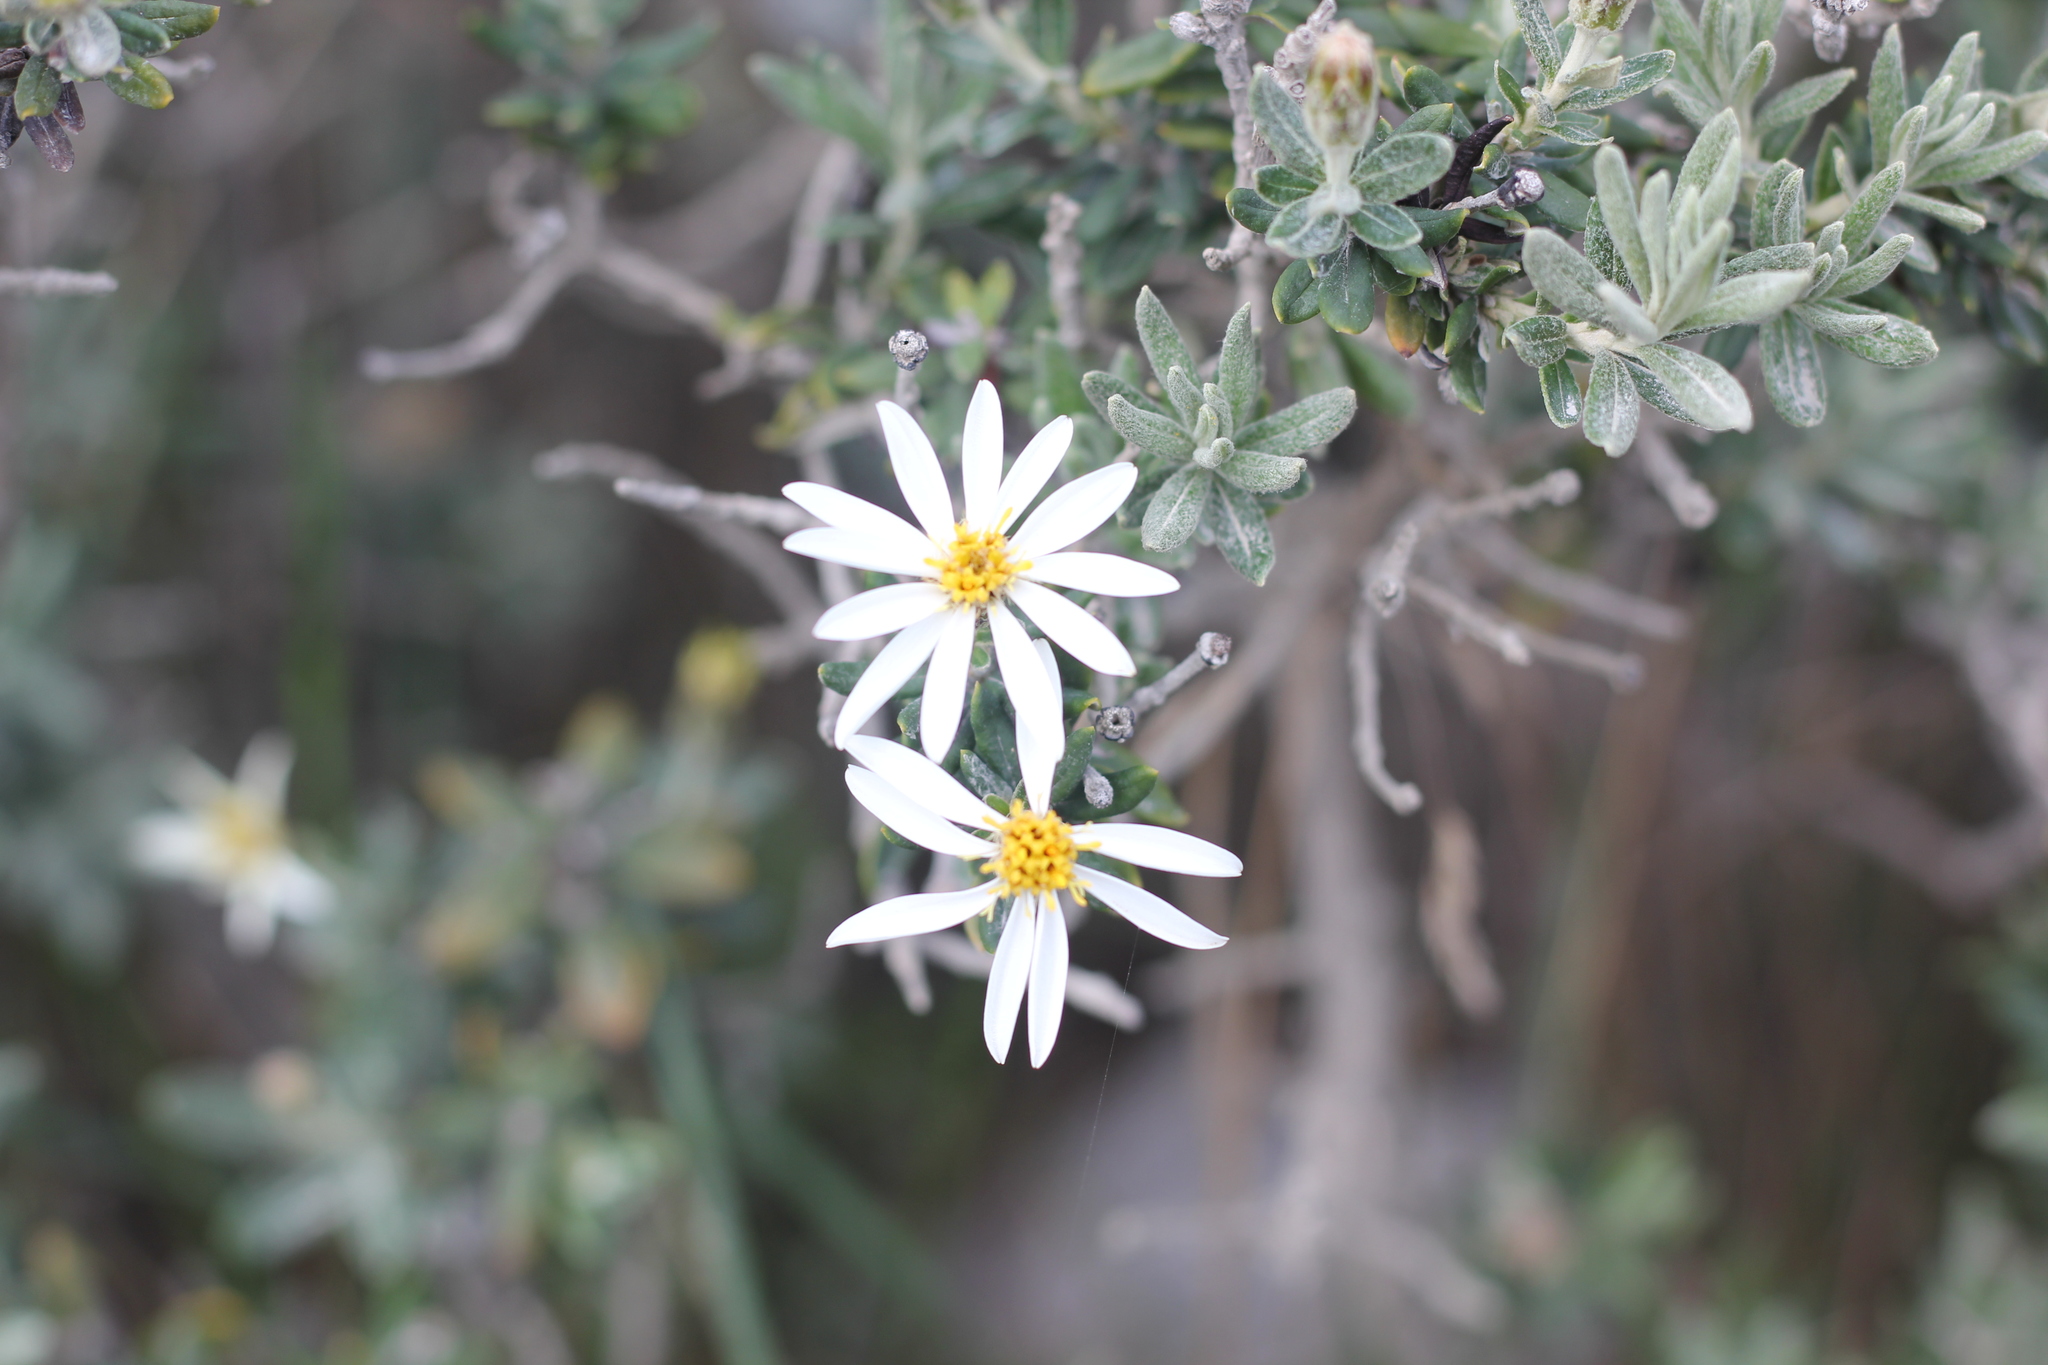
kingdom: Plantae
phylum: Tracheophyta
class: Magnoliopsida
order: Asterales
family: Asteraceae
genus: Chiliotrichum
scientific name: Chiliotrichum diffusum
